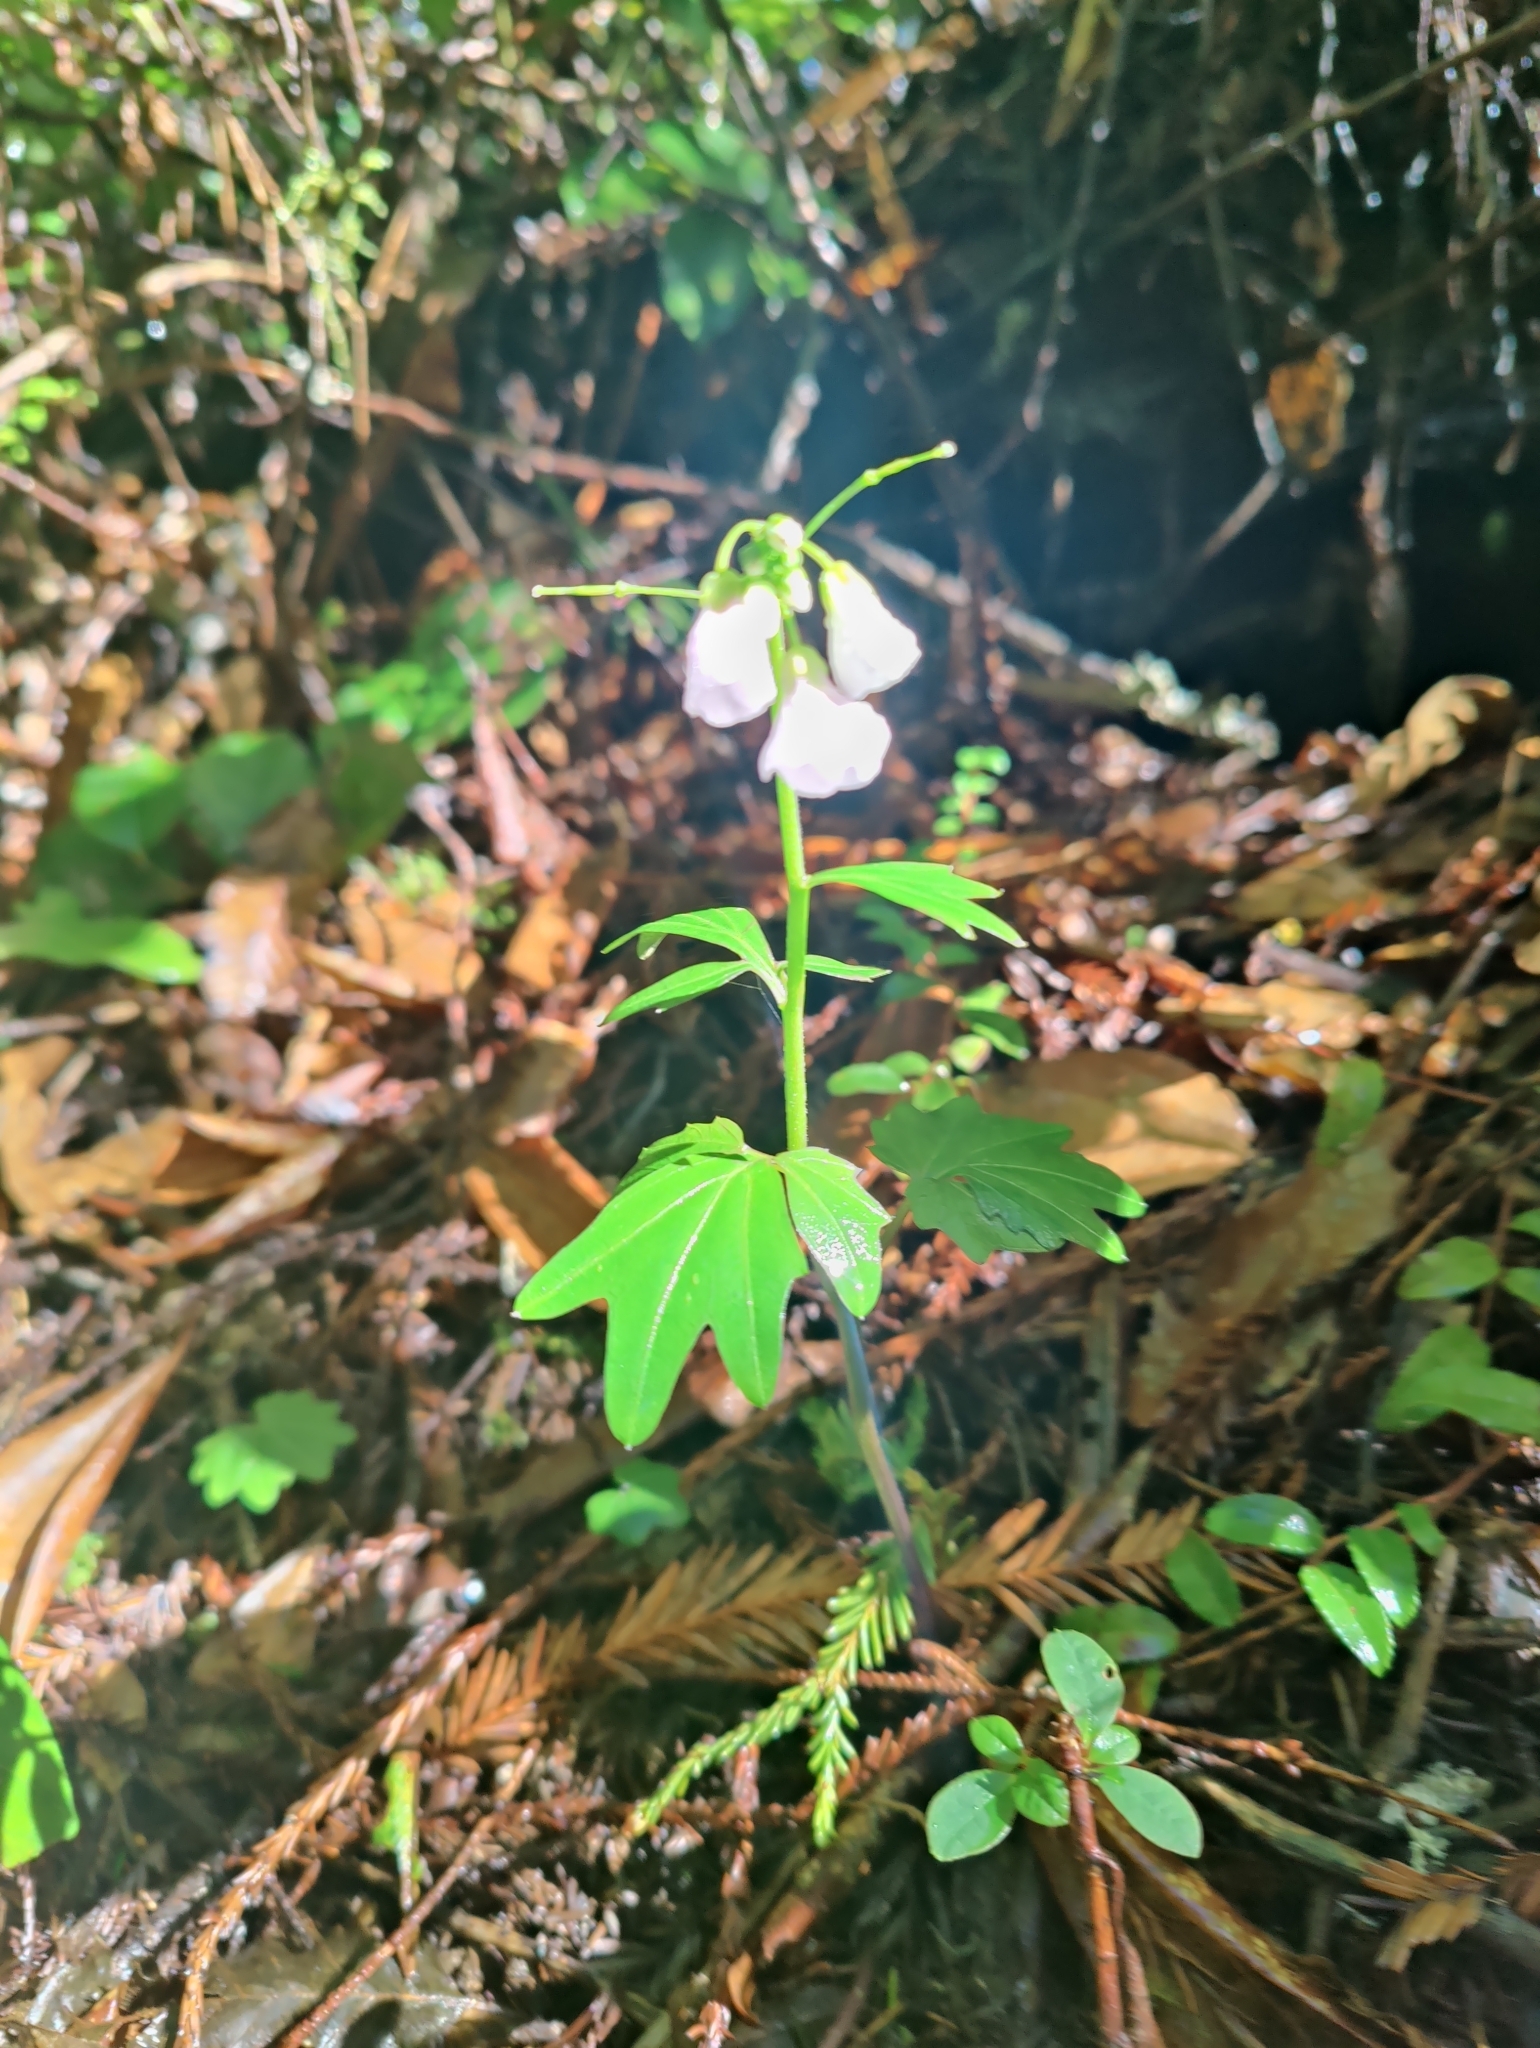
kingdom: Plantae
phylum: Tracheophyta
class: Magnoliopsida
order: Brassicales
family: Brassicaceae
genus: Cardamine
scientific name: Cardamine nuttallii
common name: Nuttall's toothwort
